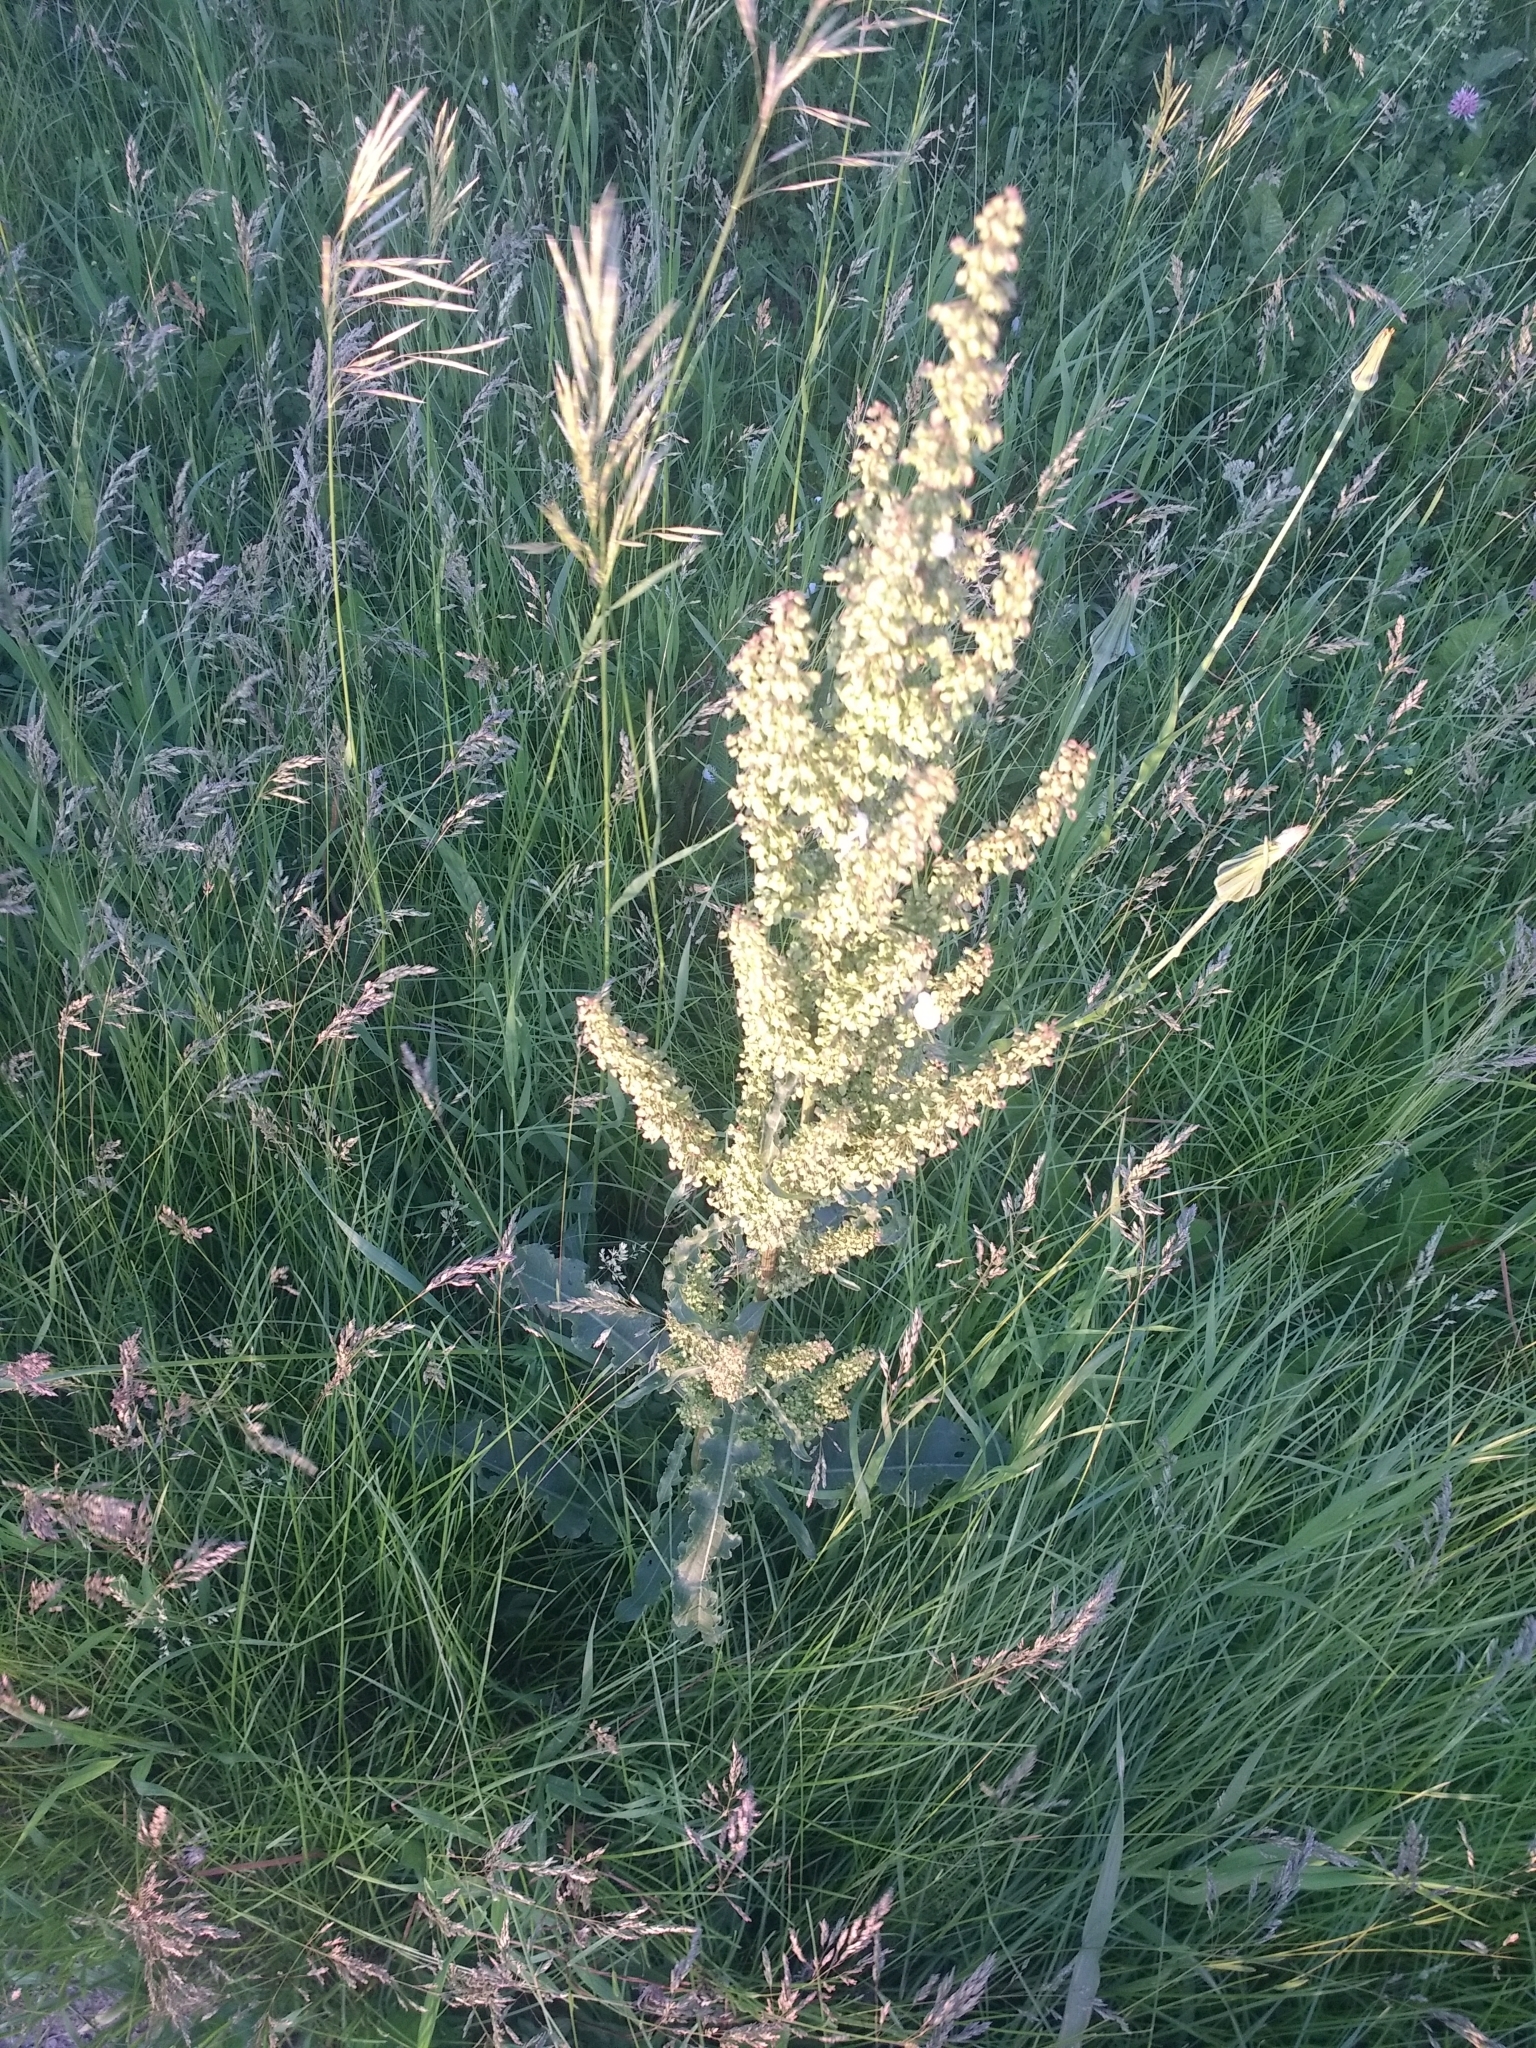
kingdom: Plantae
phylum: Tracheophyta
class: Magnoliopsida
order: Caryophyllales
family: Polygonaceae
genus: Rumex
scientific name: Rumex crispus
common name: Curled dock
